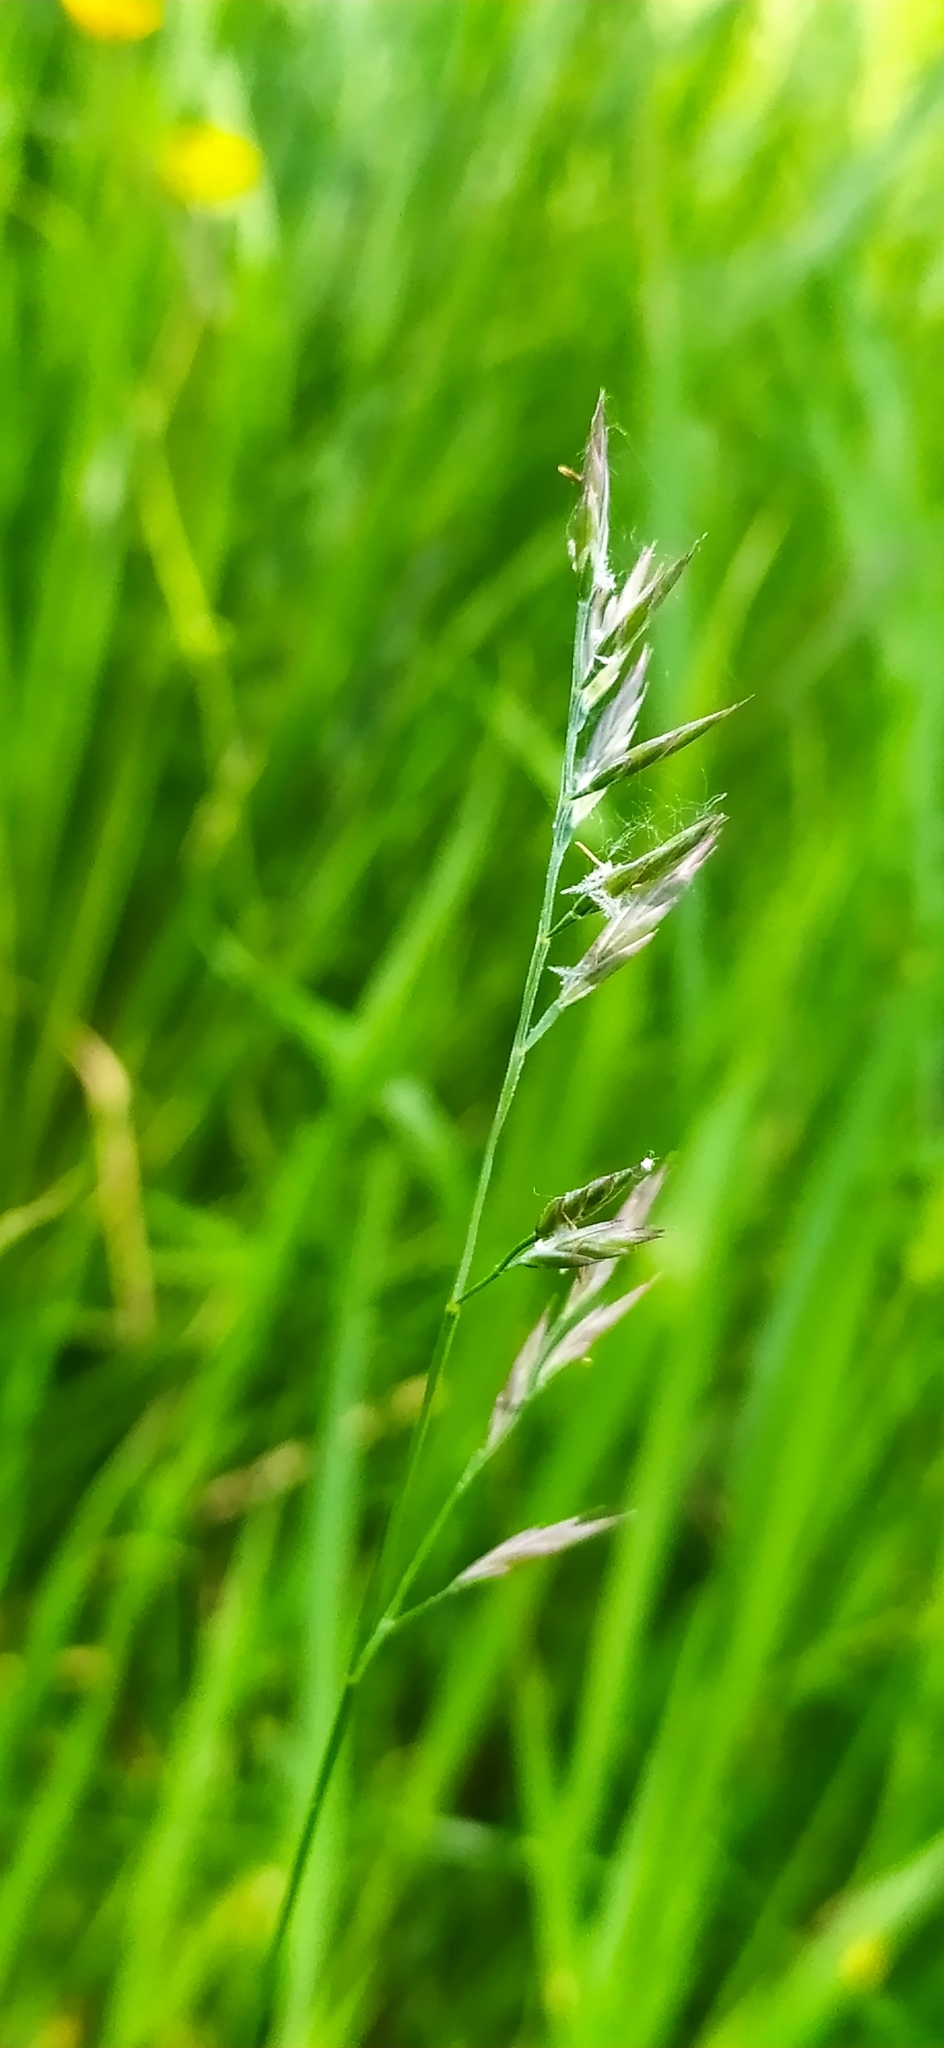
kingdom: Plantae
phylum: Tracheophyta
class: Liliopsida
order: Poales
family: Poaceae
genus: Festuca
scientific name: Festuca rubra
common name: Red fescue
